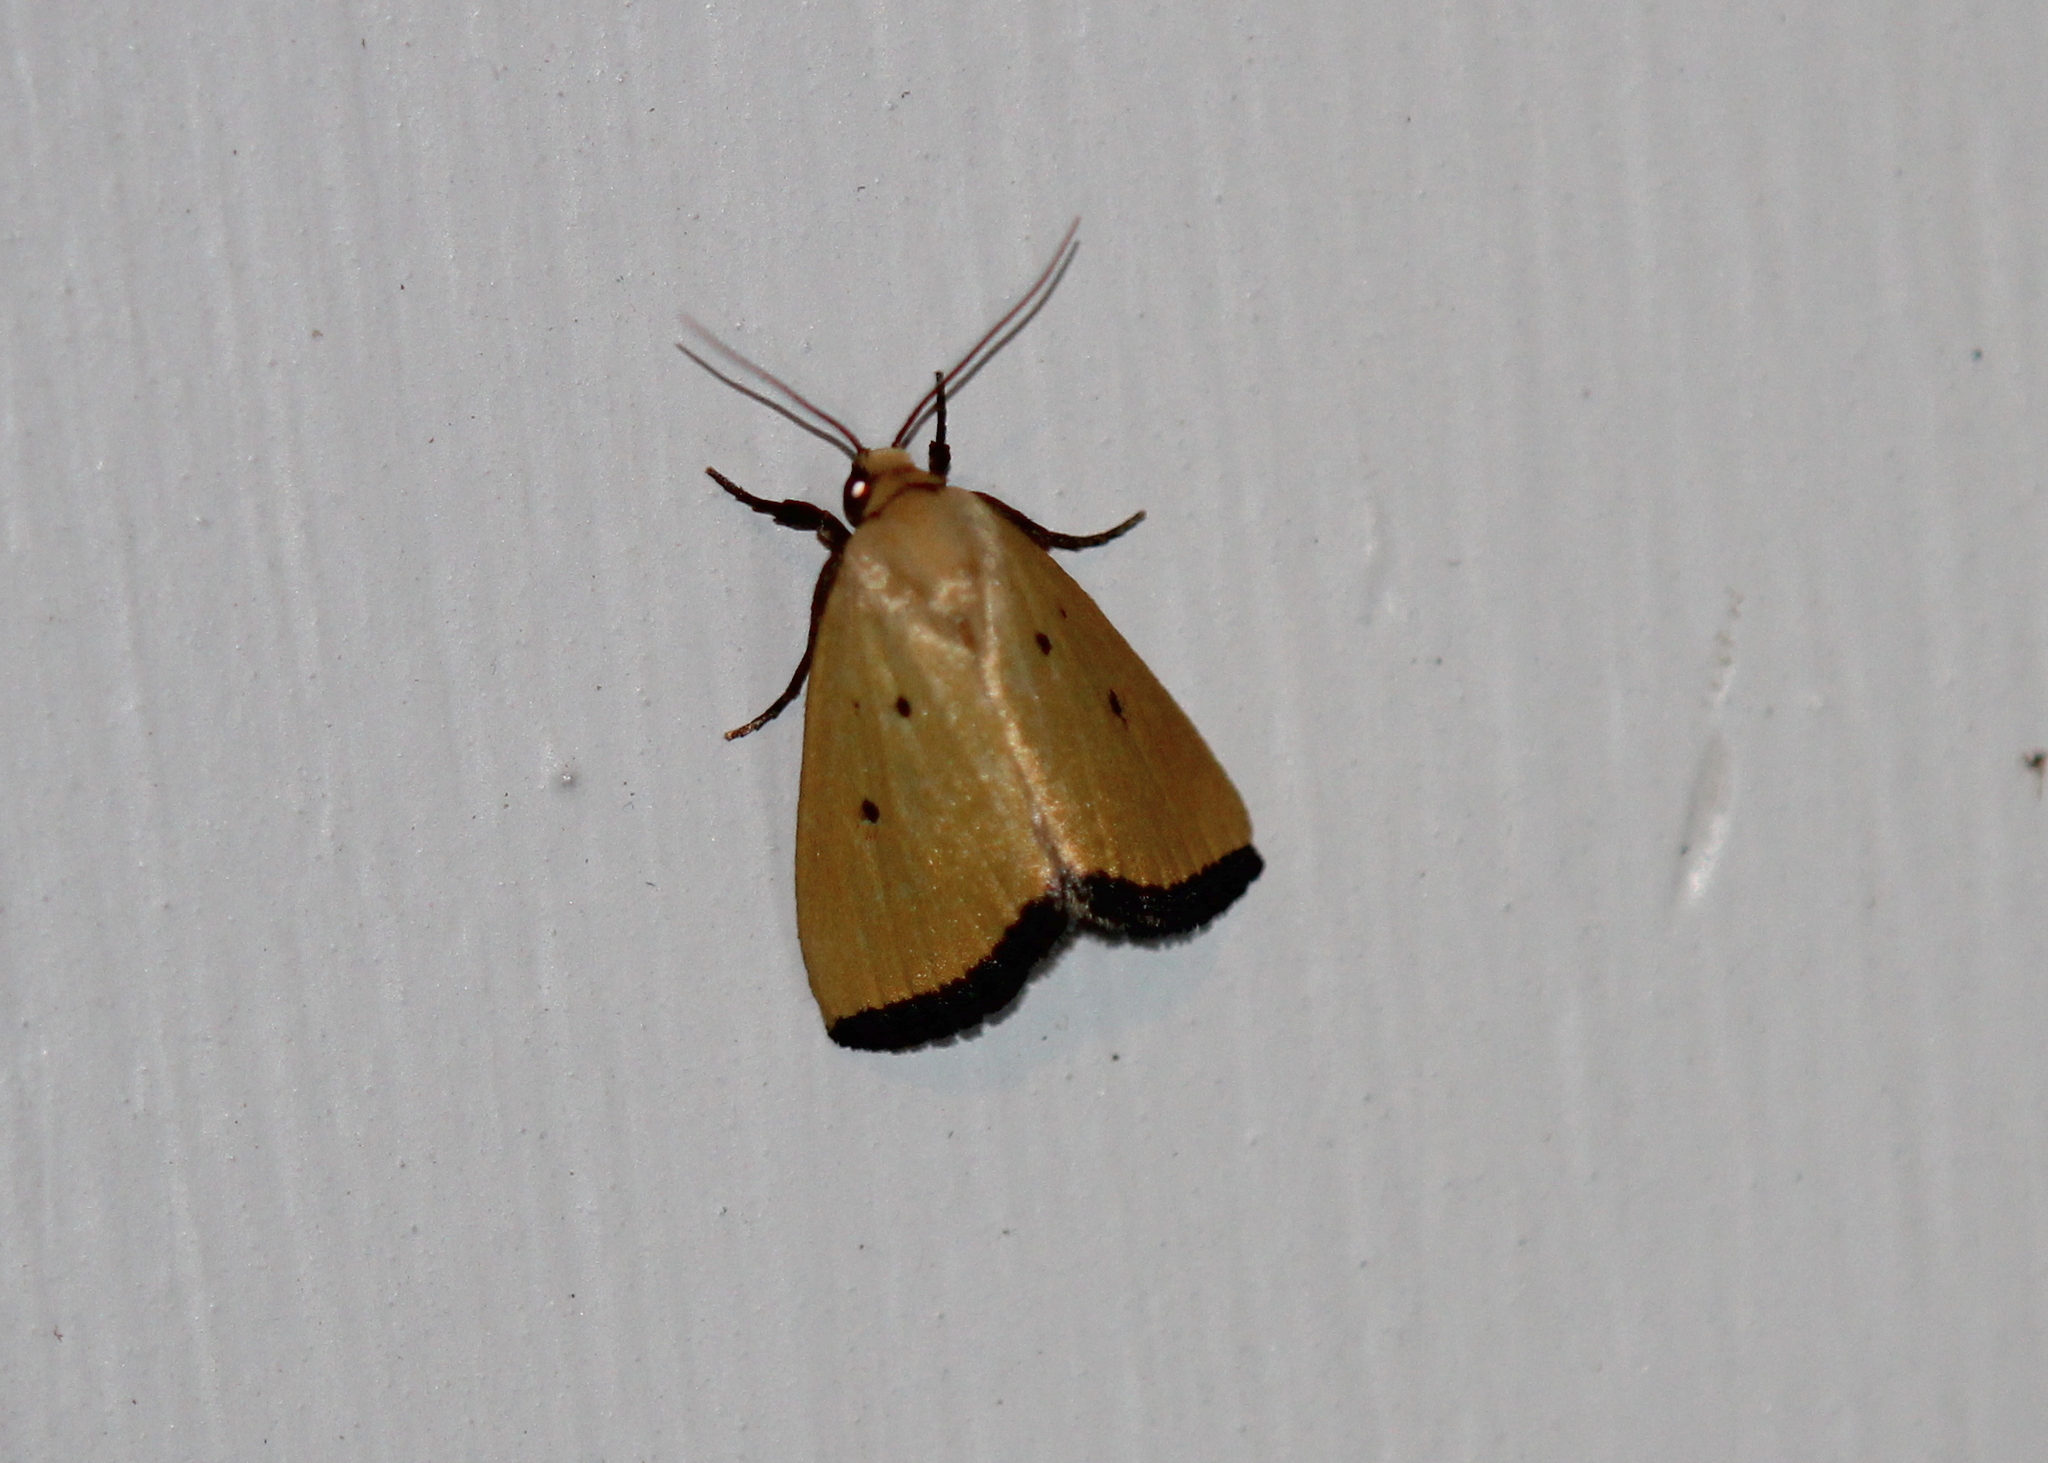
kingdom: Animalia
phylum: Arthropoda
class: Insecta
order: Lepidoptera
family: Noctuidae
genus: Marimatha
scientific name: Marimatha nigrofimbria
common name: Black-bordered lemon moth
